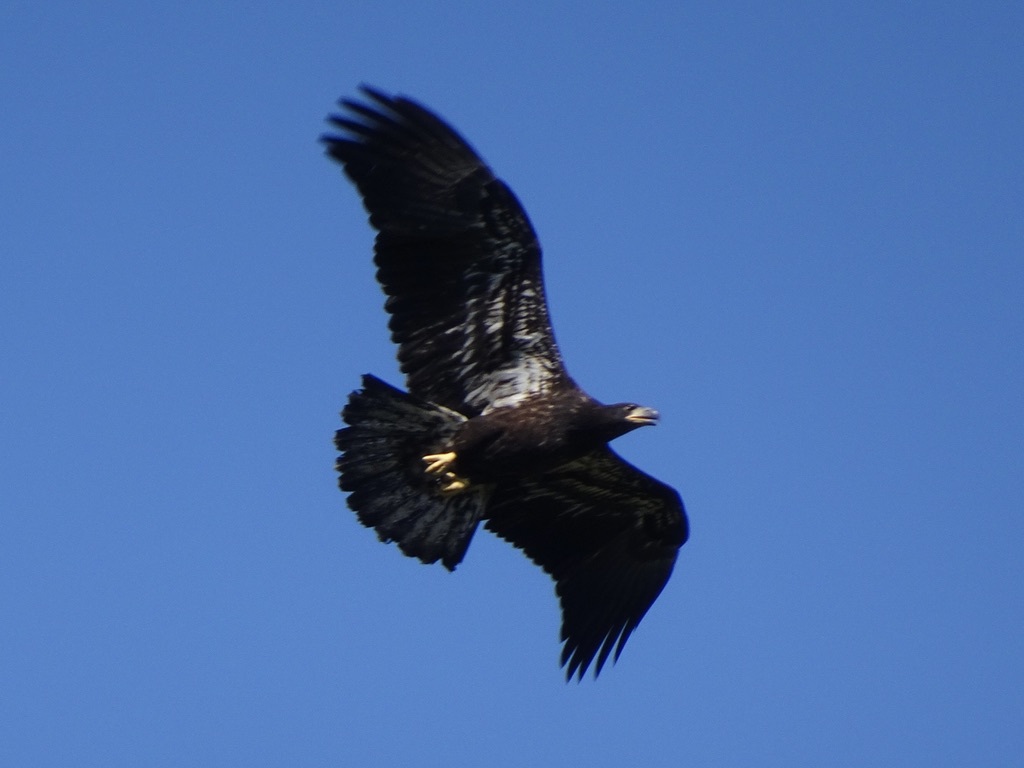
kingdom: Animalia
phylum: Chordata
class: Aves
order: Accipitriformes
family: Accipitridae
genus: Haliaeetus
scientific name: Haliaeetus leucocephalus
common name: Bald eagle
